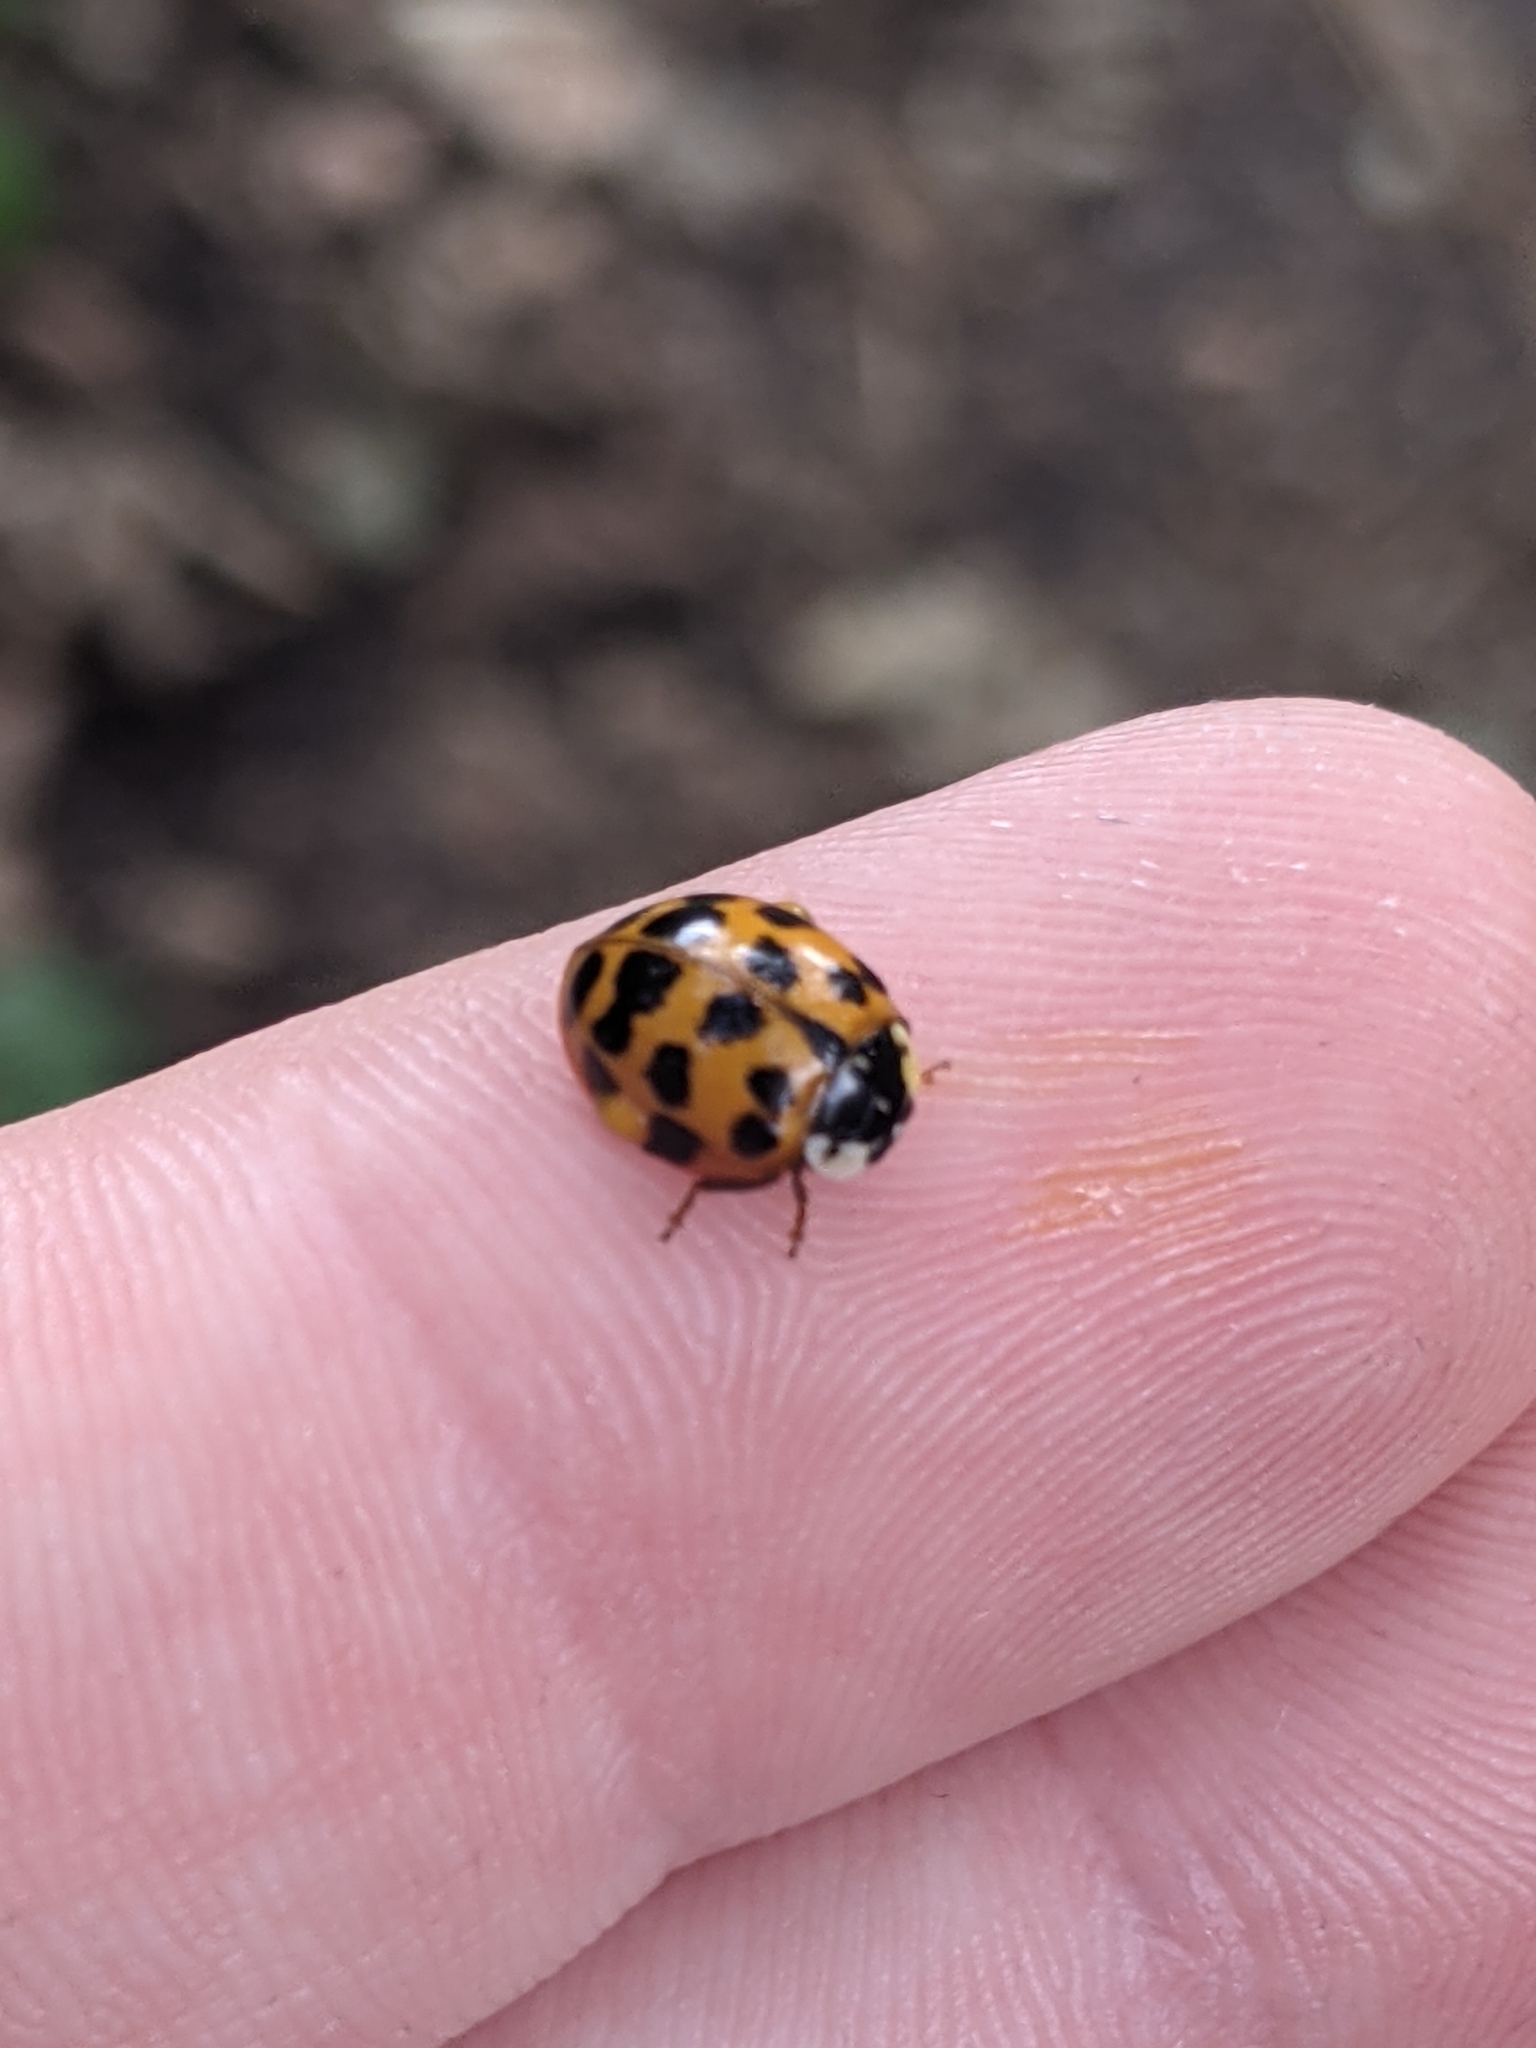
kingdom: Animalia
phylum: Arthropoda
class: Insecta
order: Coleoptera
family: Coccinellidae
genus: Harmonia
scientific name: Harmonia axyridis
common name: Harlequin ladybird
